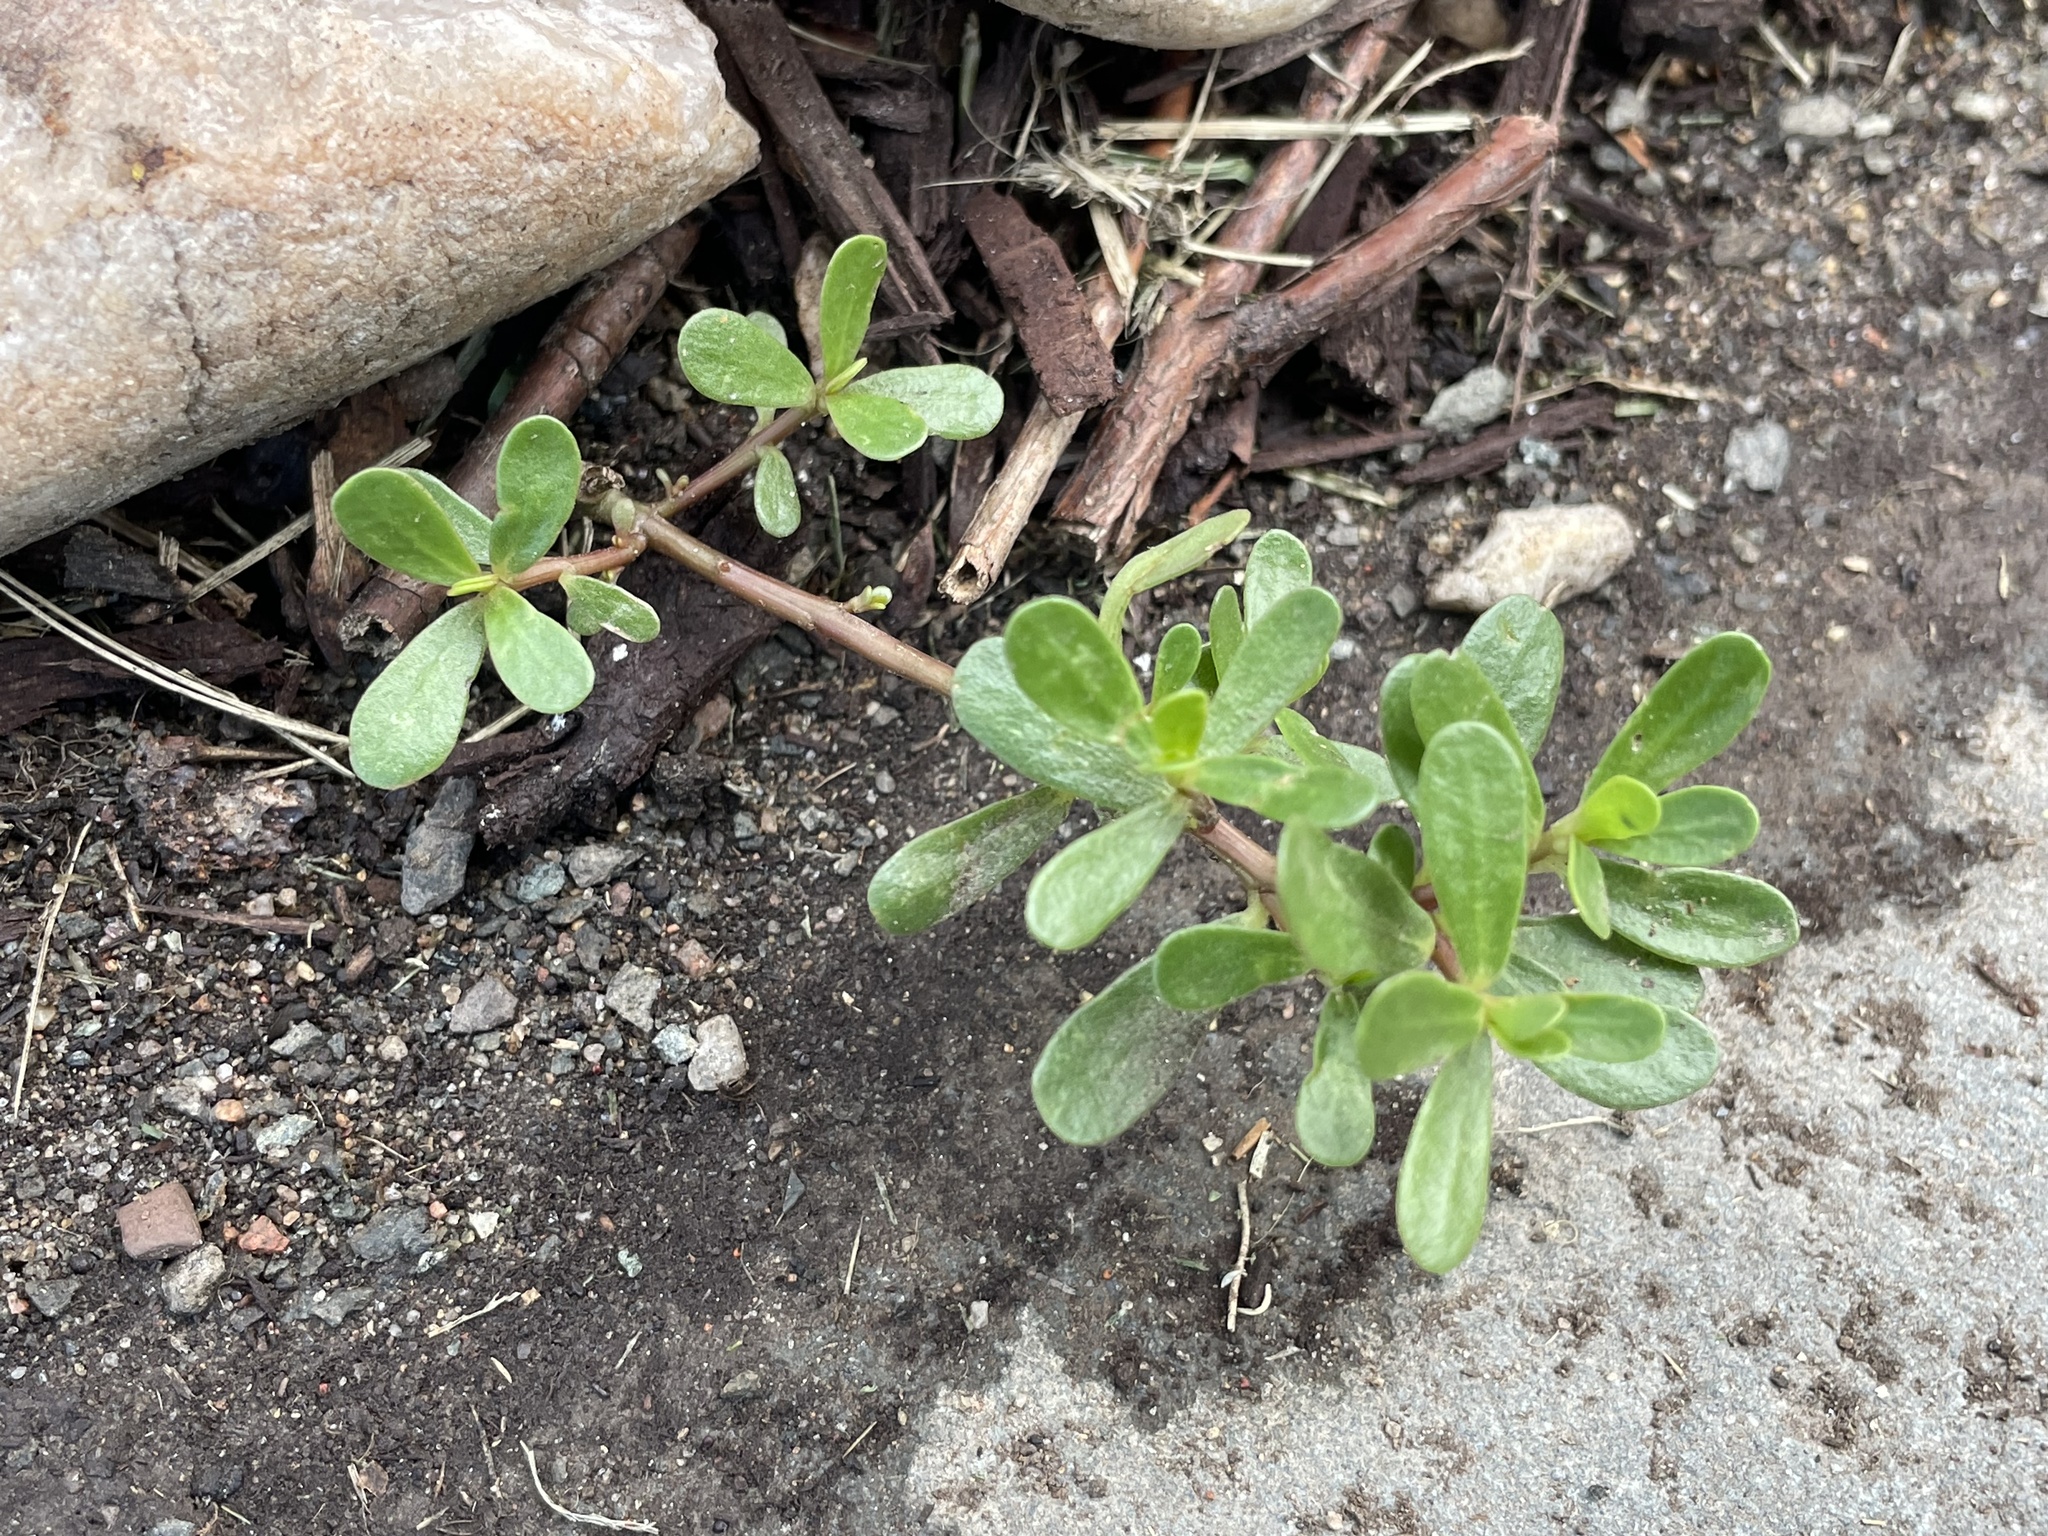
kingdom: Plantae
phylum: Tracheophyta
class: Magnoliopsida
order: Caryophyllales
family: Portulacaceae
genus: Portulaca
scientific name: Portulaca oleracea
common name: Common purslane
